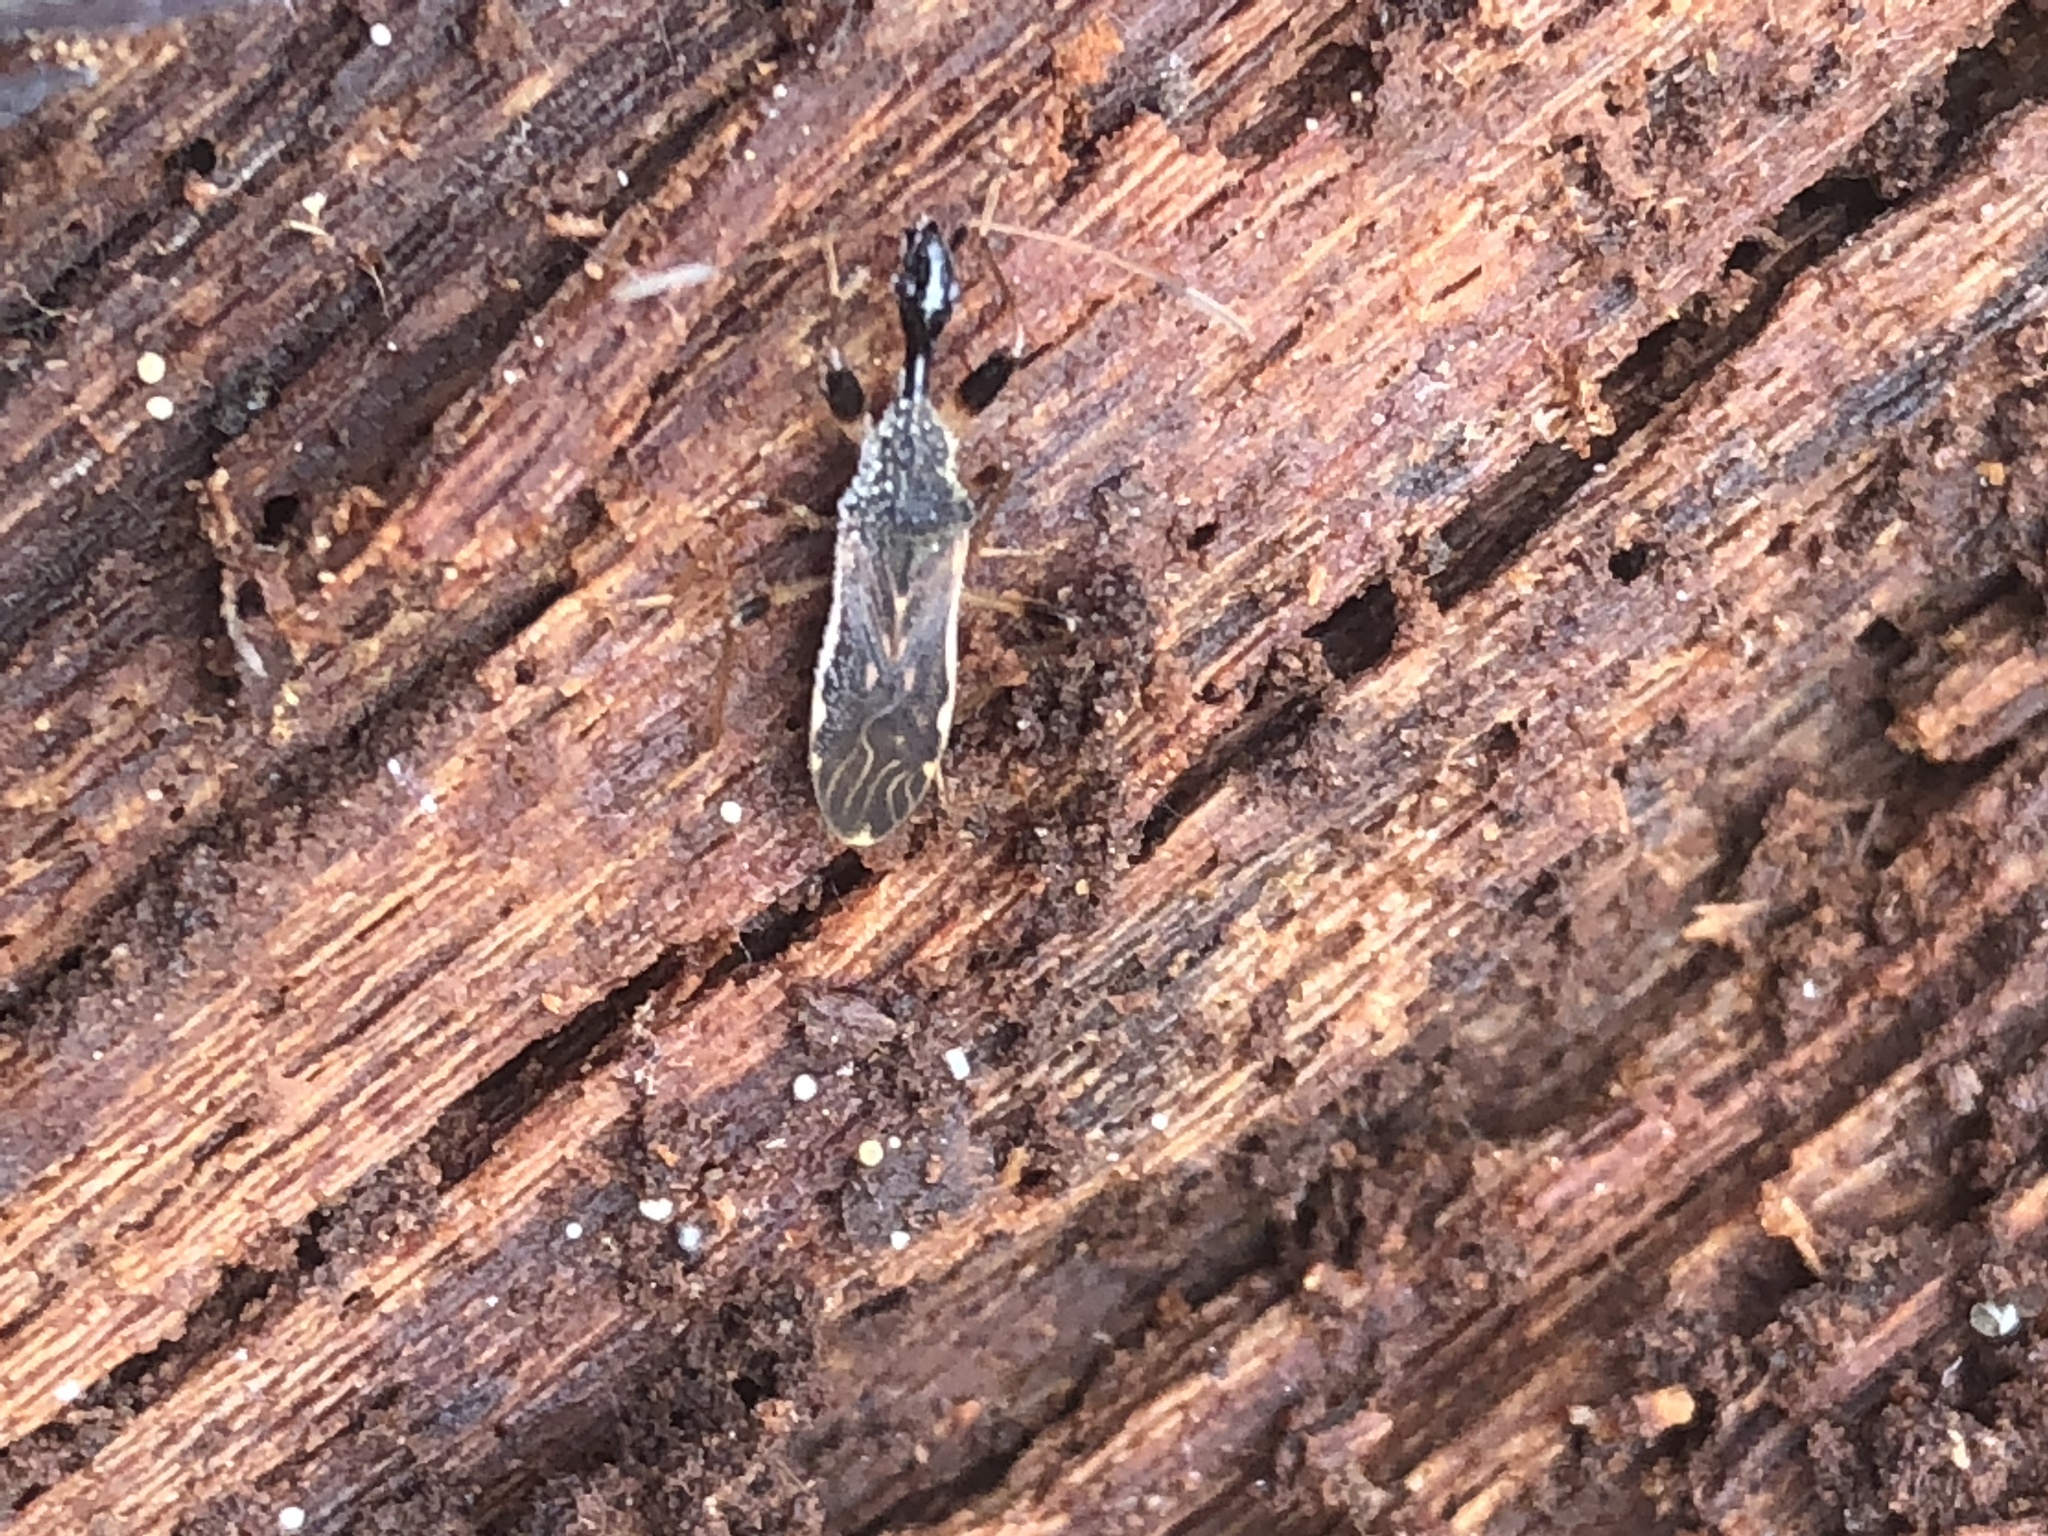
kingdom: Animalia
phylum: Arthropoda
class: Insecta
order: Hemiptera
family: Rhyparochromidae
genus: Myodocha
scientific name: Myodocha serripes
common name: Long-necked seed bug
